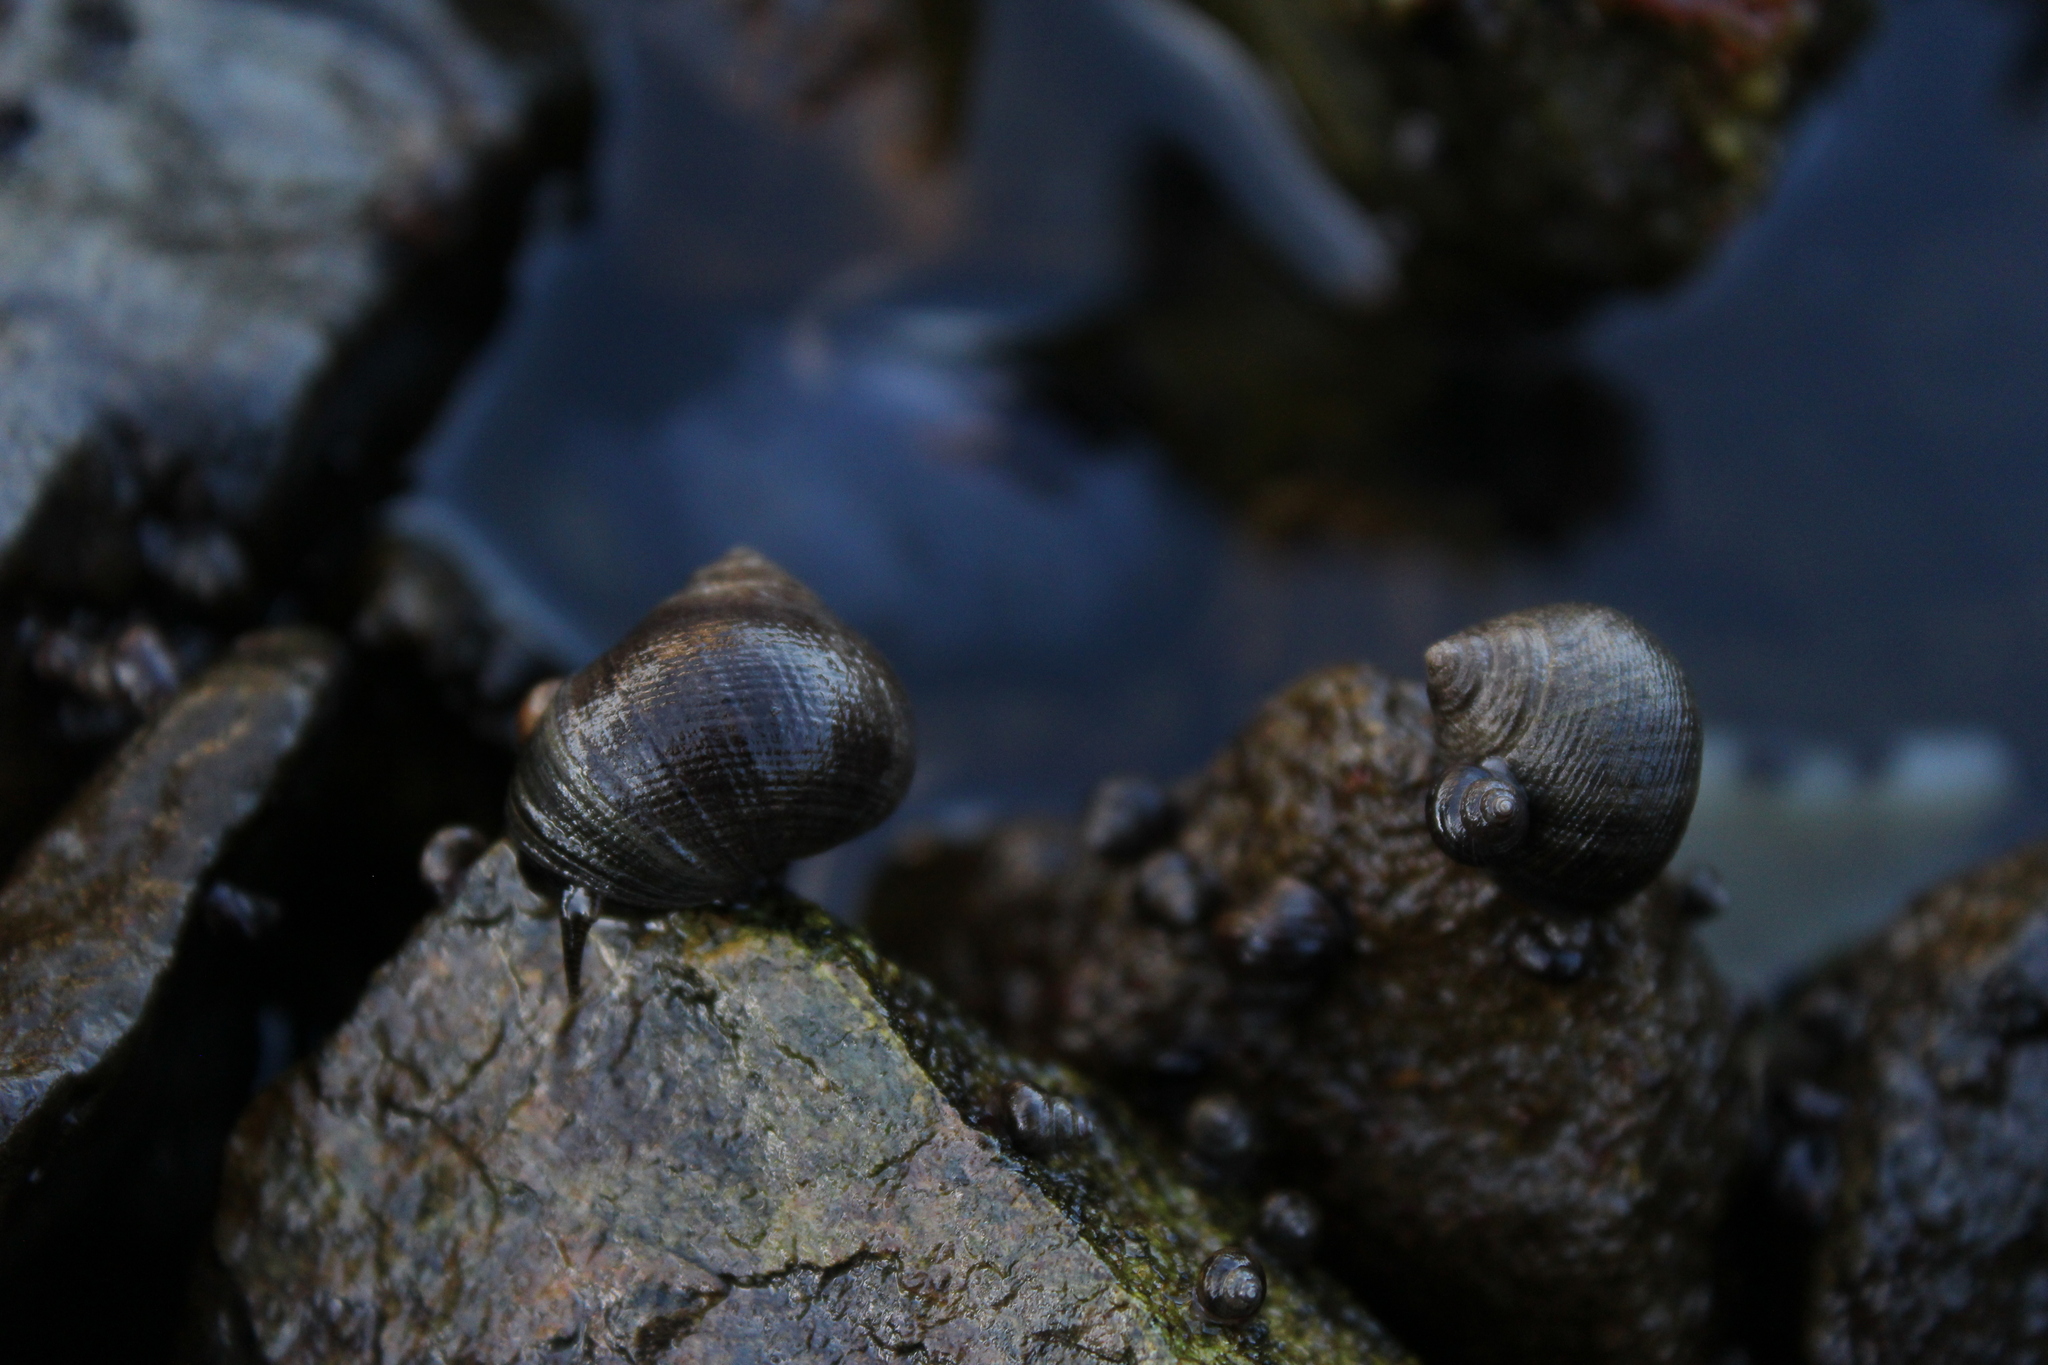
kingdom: Animalia
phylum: Mollusca
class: Gastropoda
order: Littorinimorpha
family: Littorinidae
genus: Littorina
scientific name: Littorina littorea
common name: Common periwinkle
